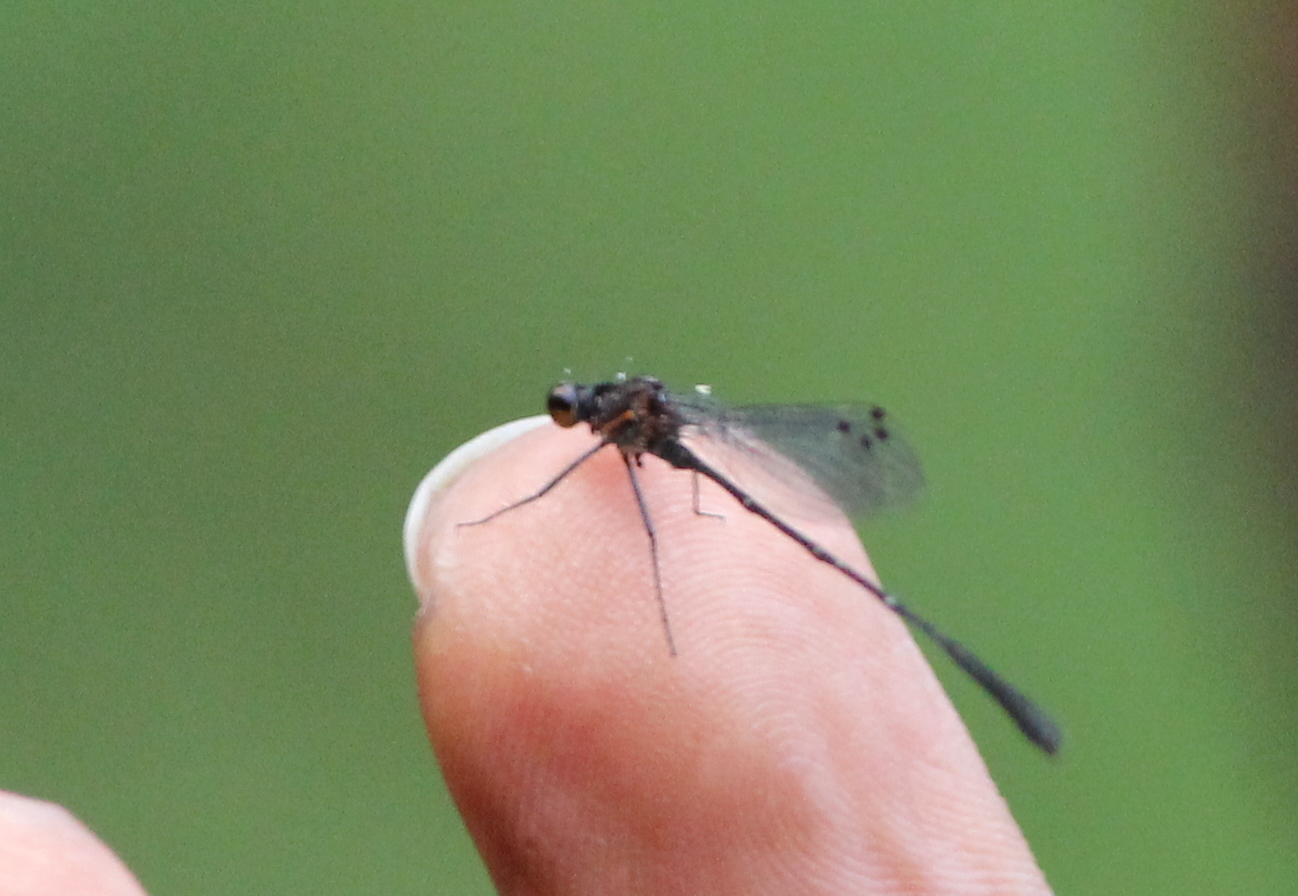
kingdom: Animalia
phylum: Arthropoda
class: Insecta
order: Odonata
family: Platycnemididae
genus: Prodasineura
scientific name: Prodasineura verticalis
